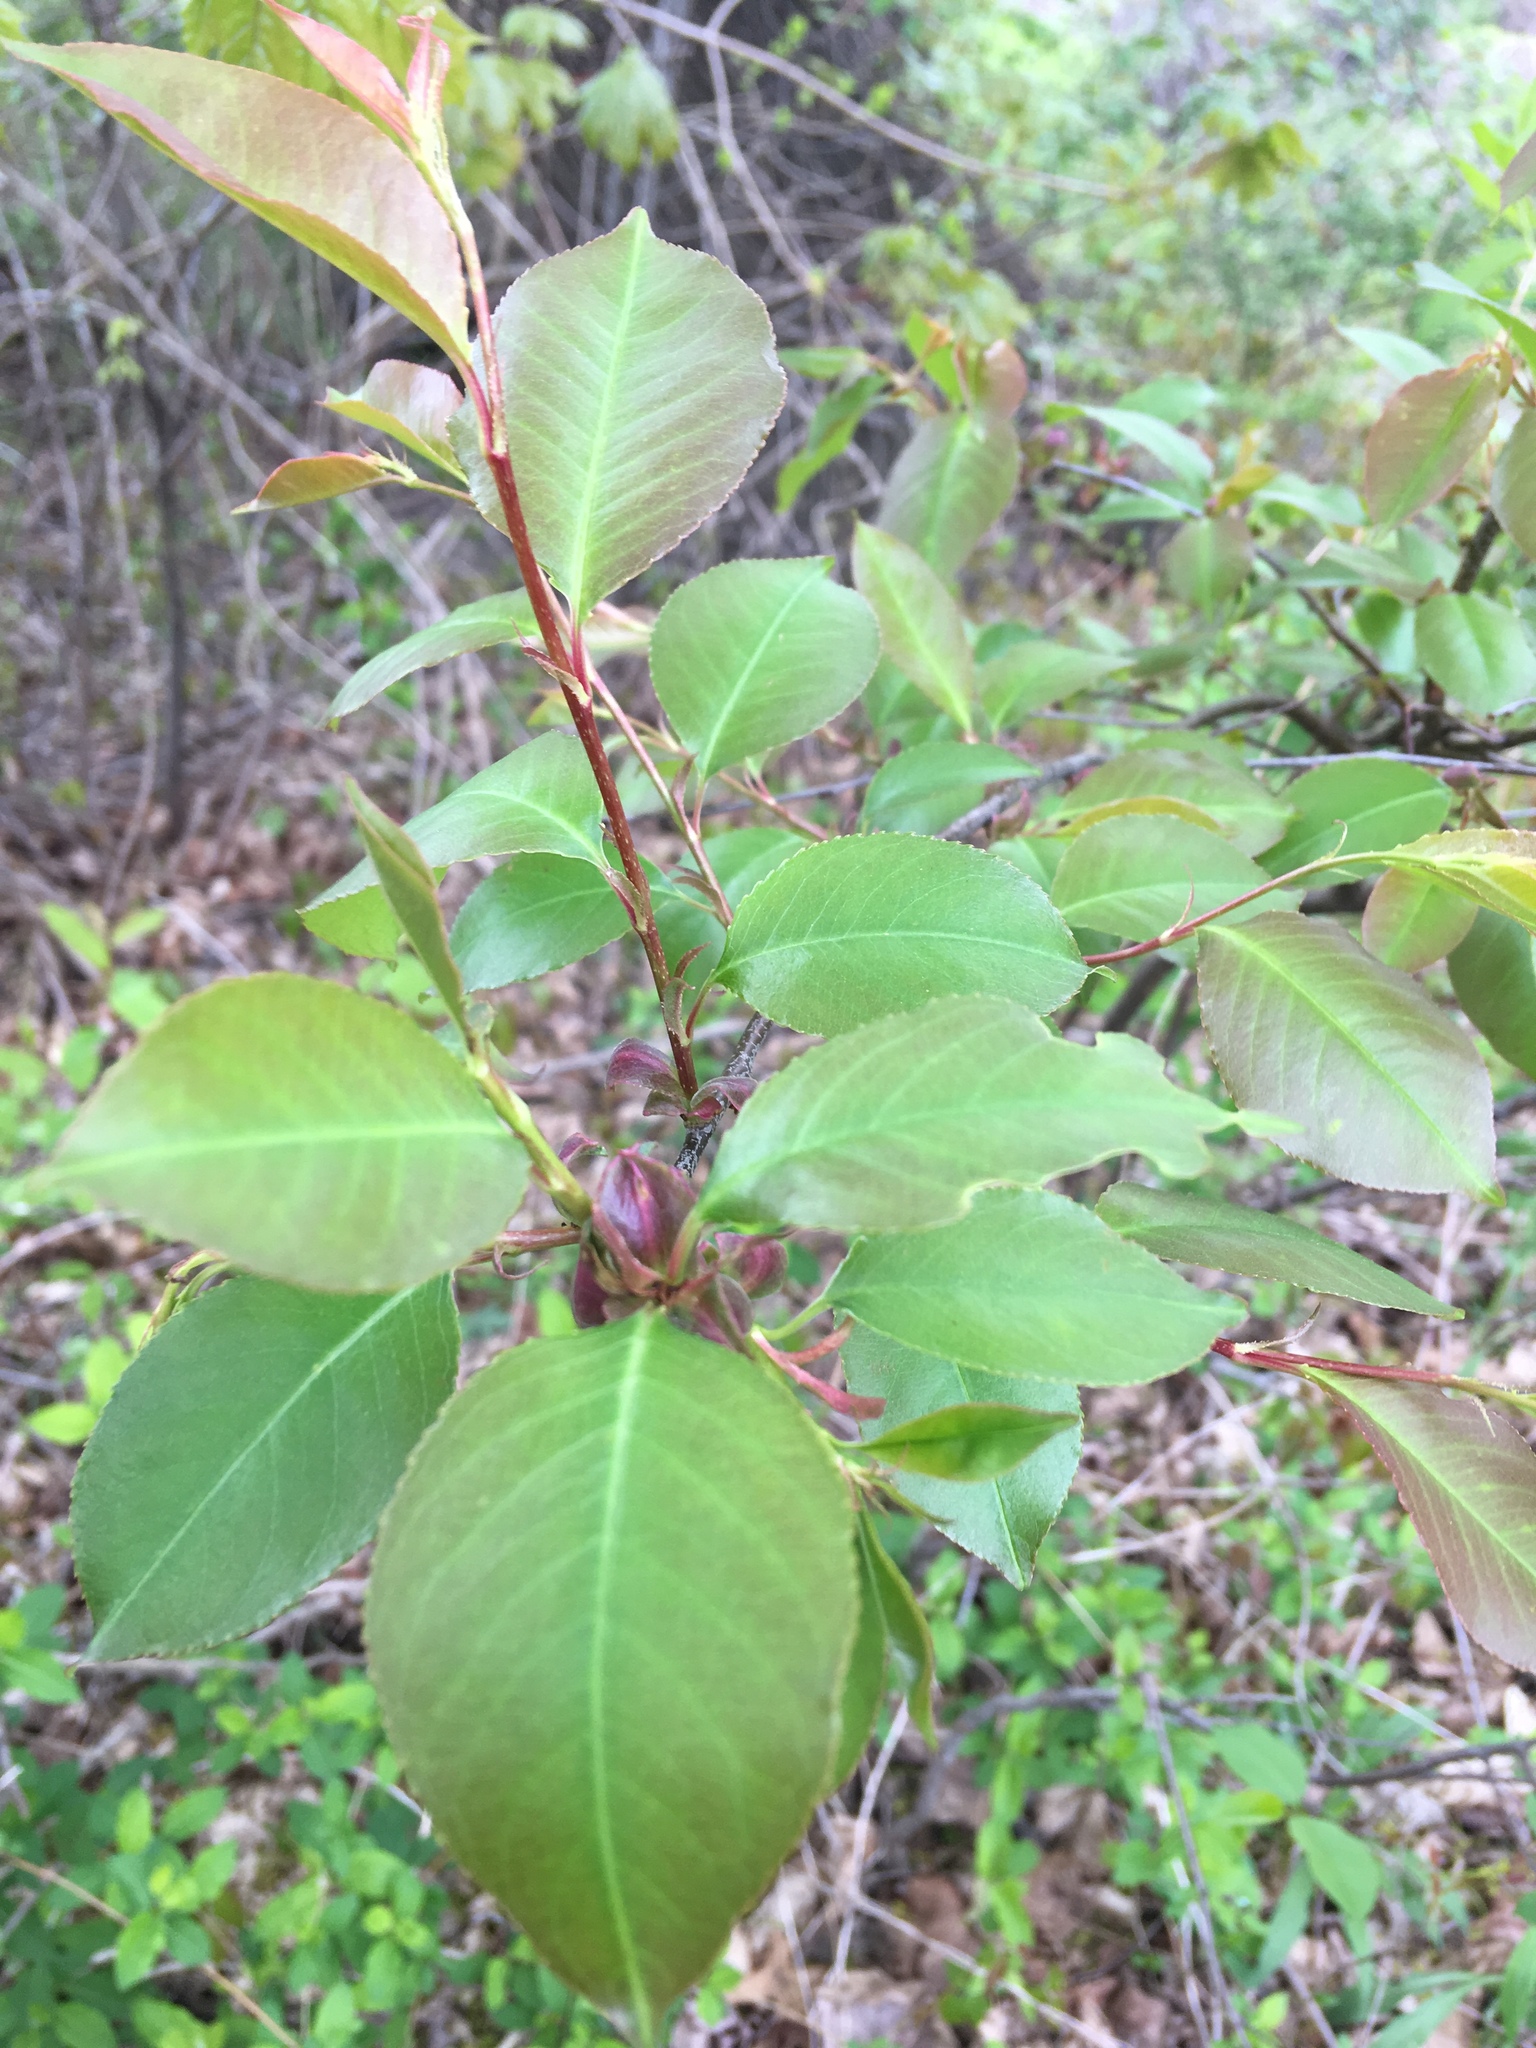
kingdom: Plantae
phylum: Tracheophyta
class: Magnoliopsida
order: Rosales
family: Rosaceae
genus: Prunus
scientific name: Prunus serotina
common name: Black cherry
